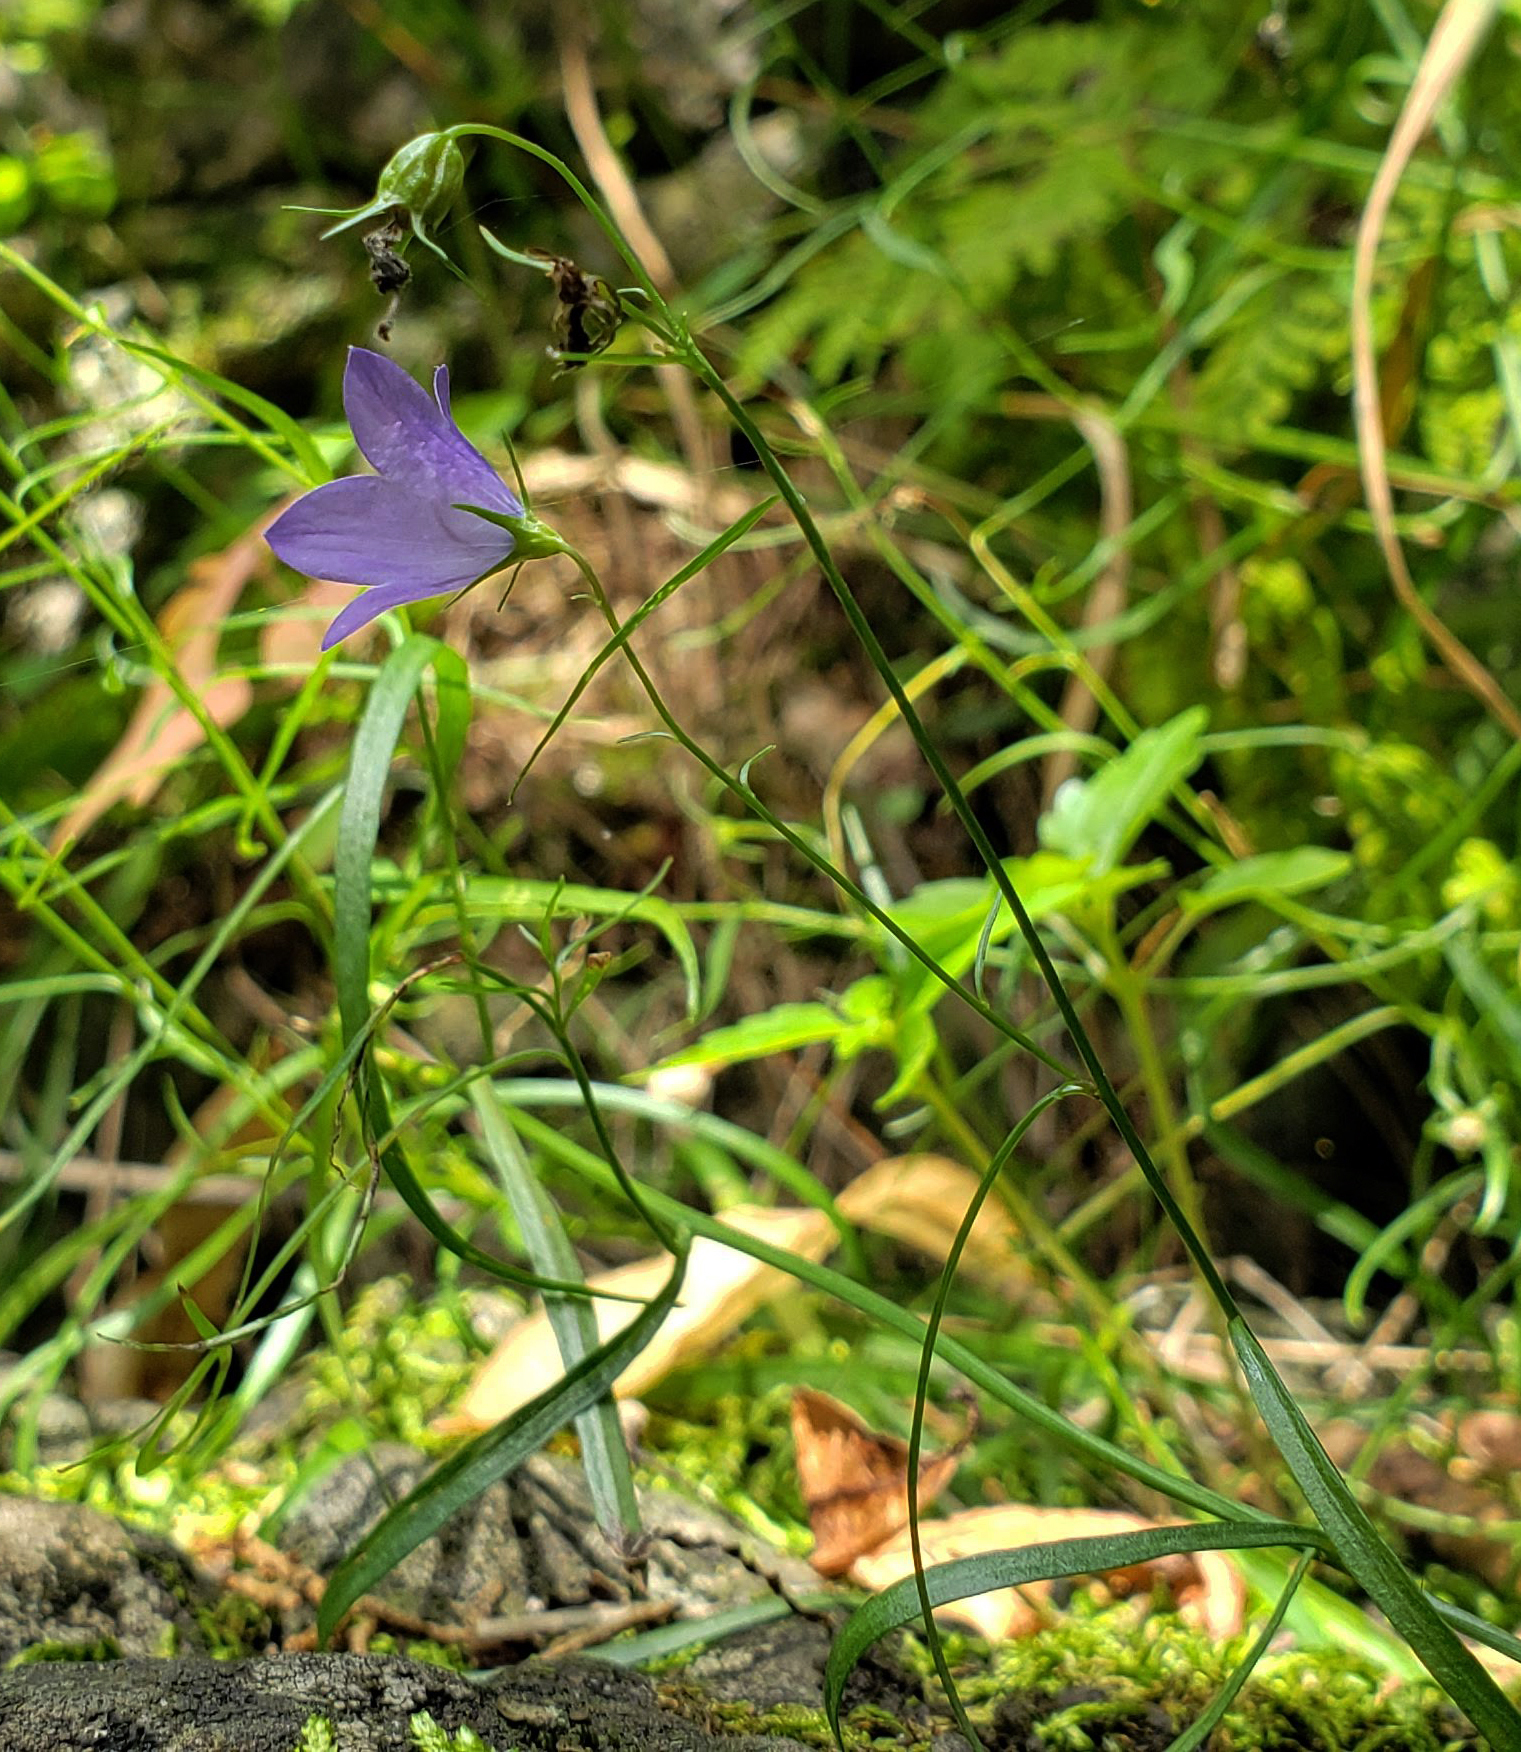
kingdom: Plantae
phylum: Tracheophyta
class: Magnoliopsida
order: Asterales
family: Campanulaceae
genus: Campanula
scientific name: Campanula intercedens
